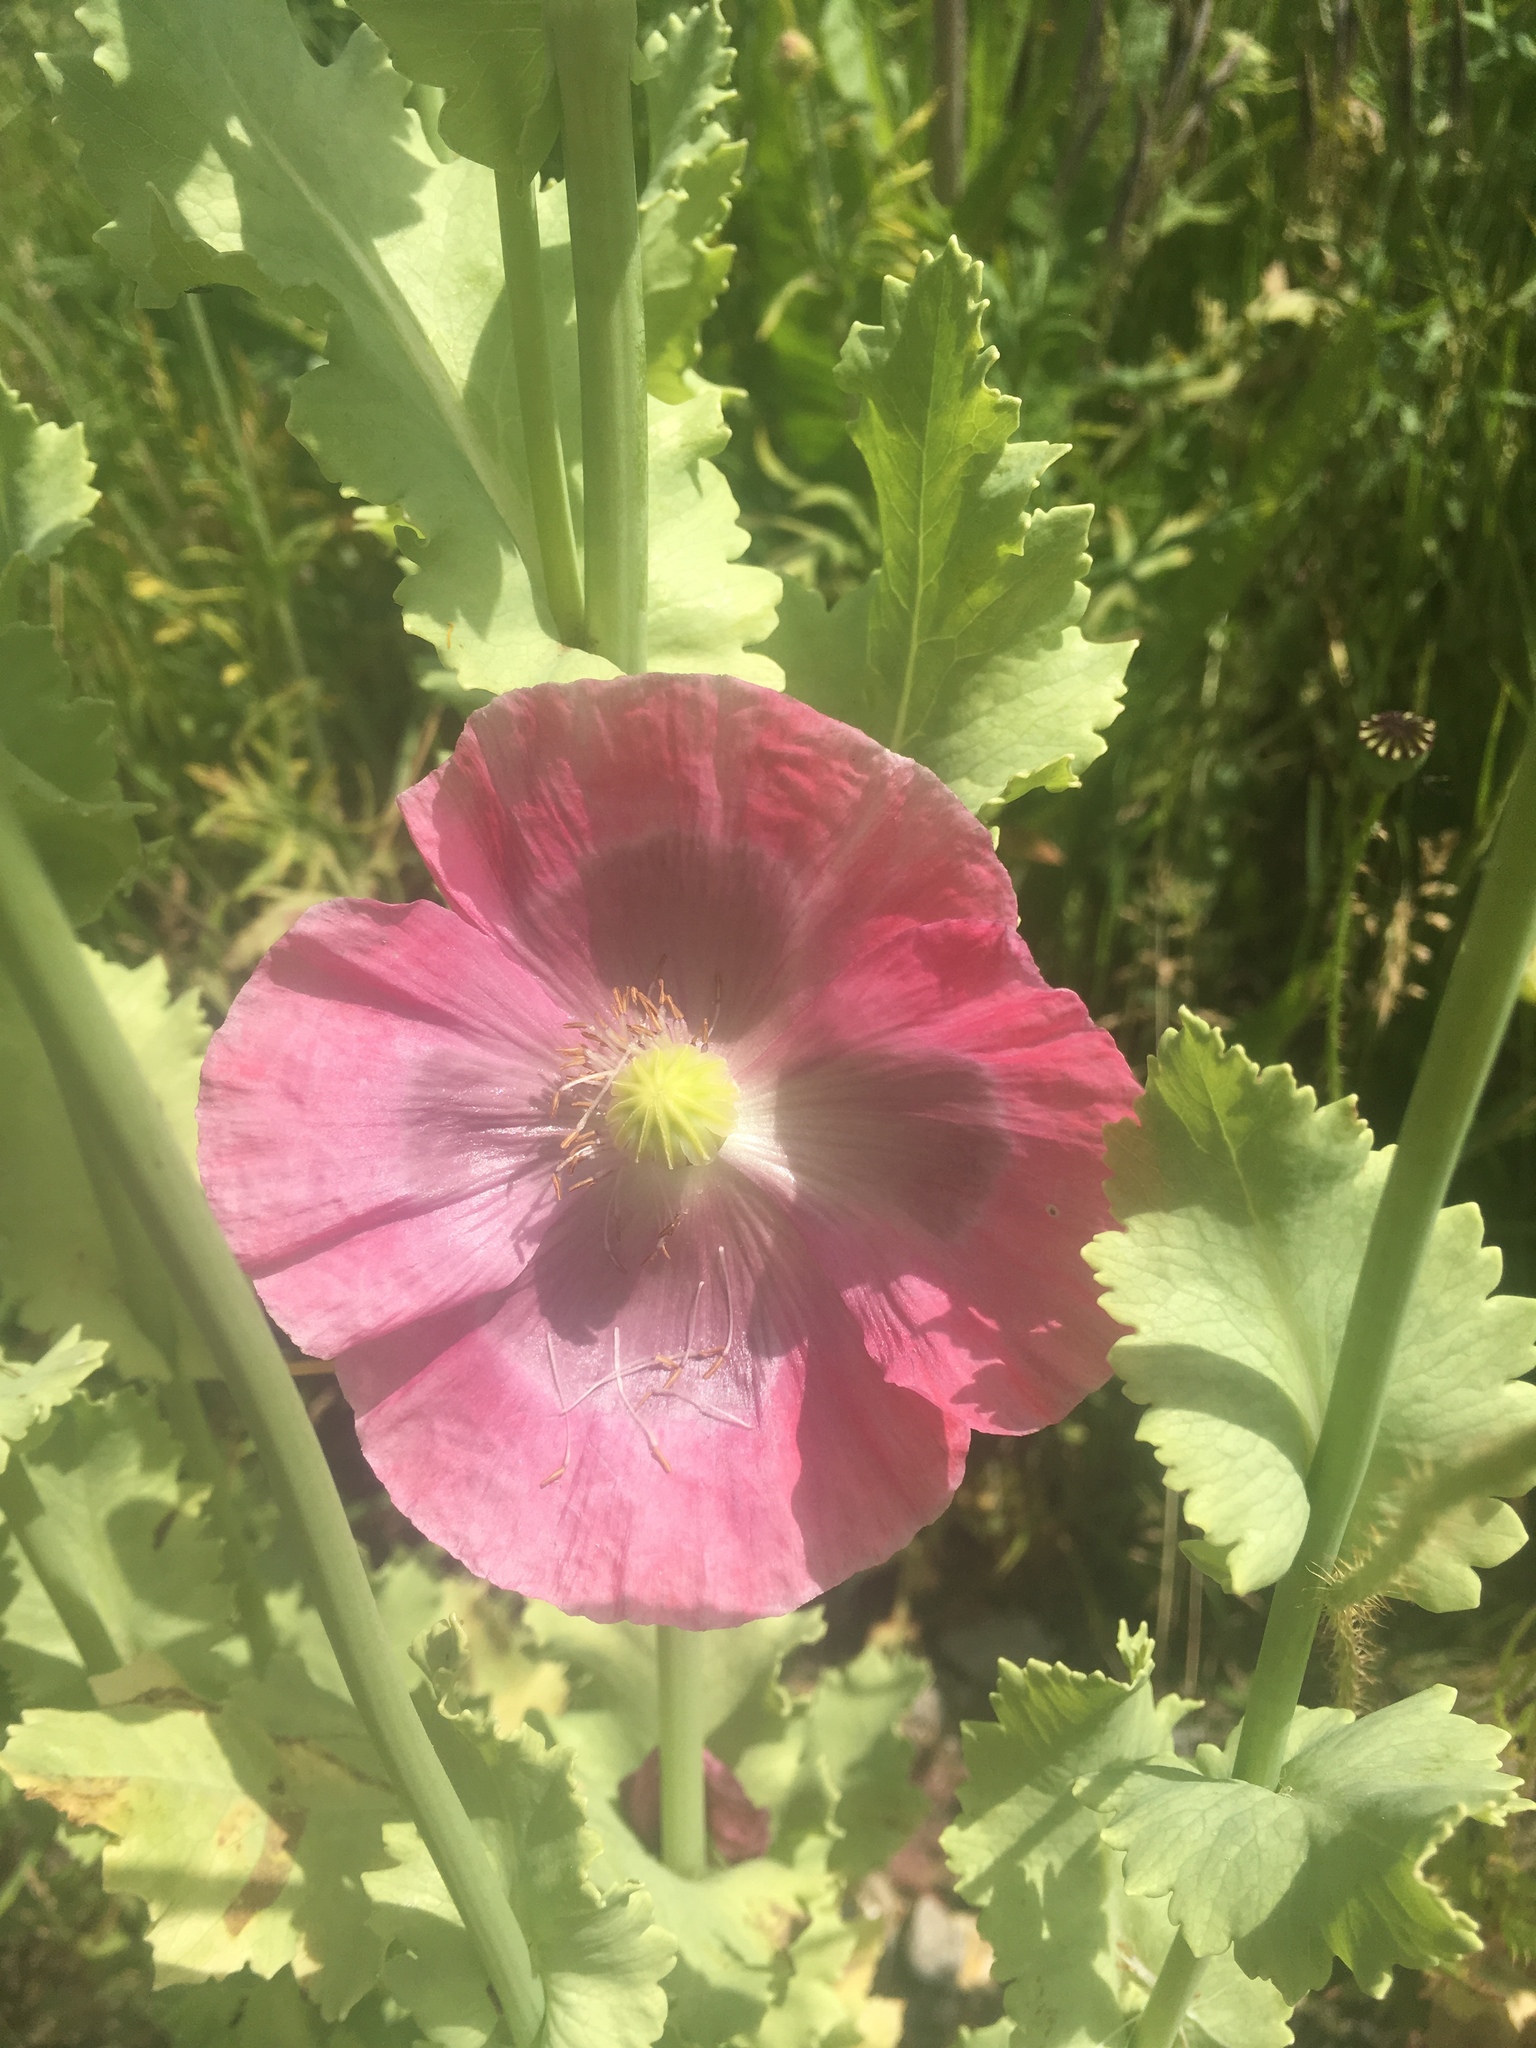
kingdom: Plantae
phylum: Tracheophyta
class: Magnoliopsida
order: Ranunculales
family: Papaveraceae
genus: Papaver
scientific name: Papaver somniferum
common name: Opium poppy
